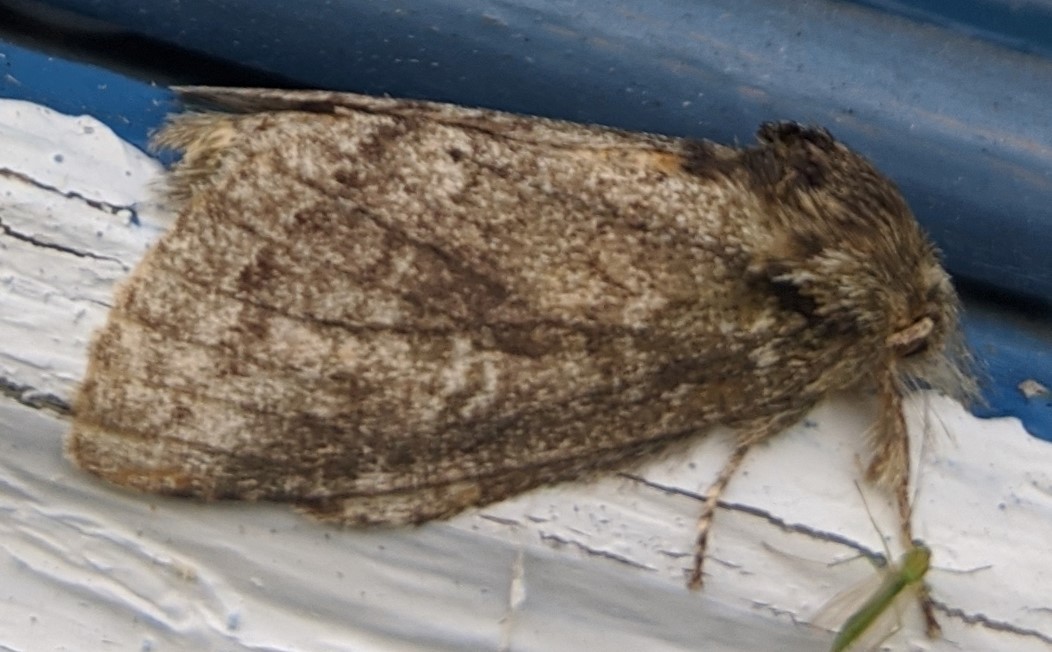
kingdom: Animalia
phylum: Arthropoda
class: Insecta
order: Lepidoptera
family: Notodontidae
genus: Disphragis
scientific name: Disphragis Cecrita guttivitta
